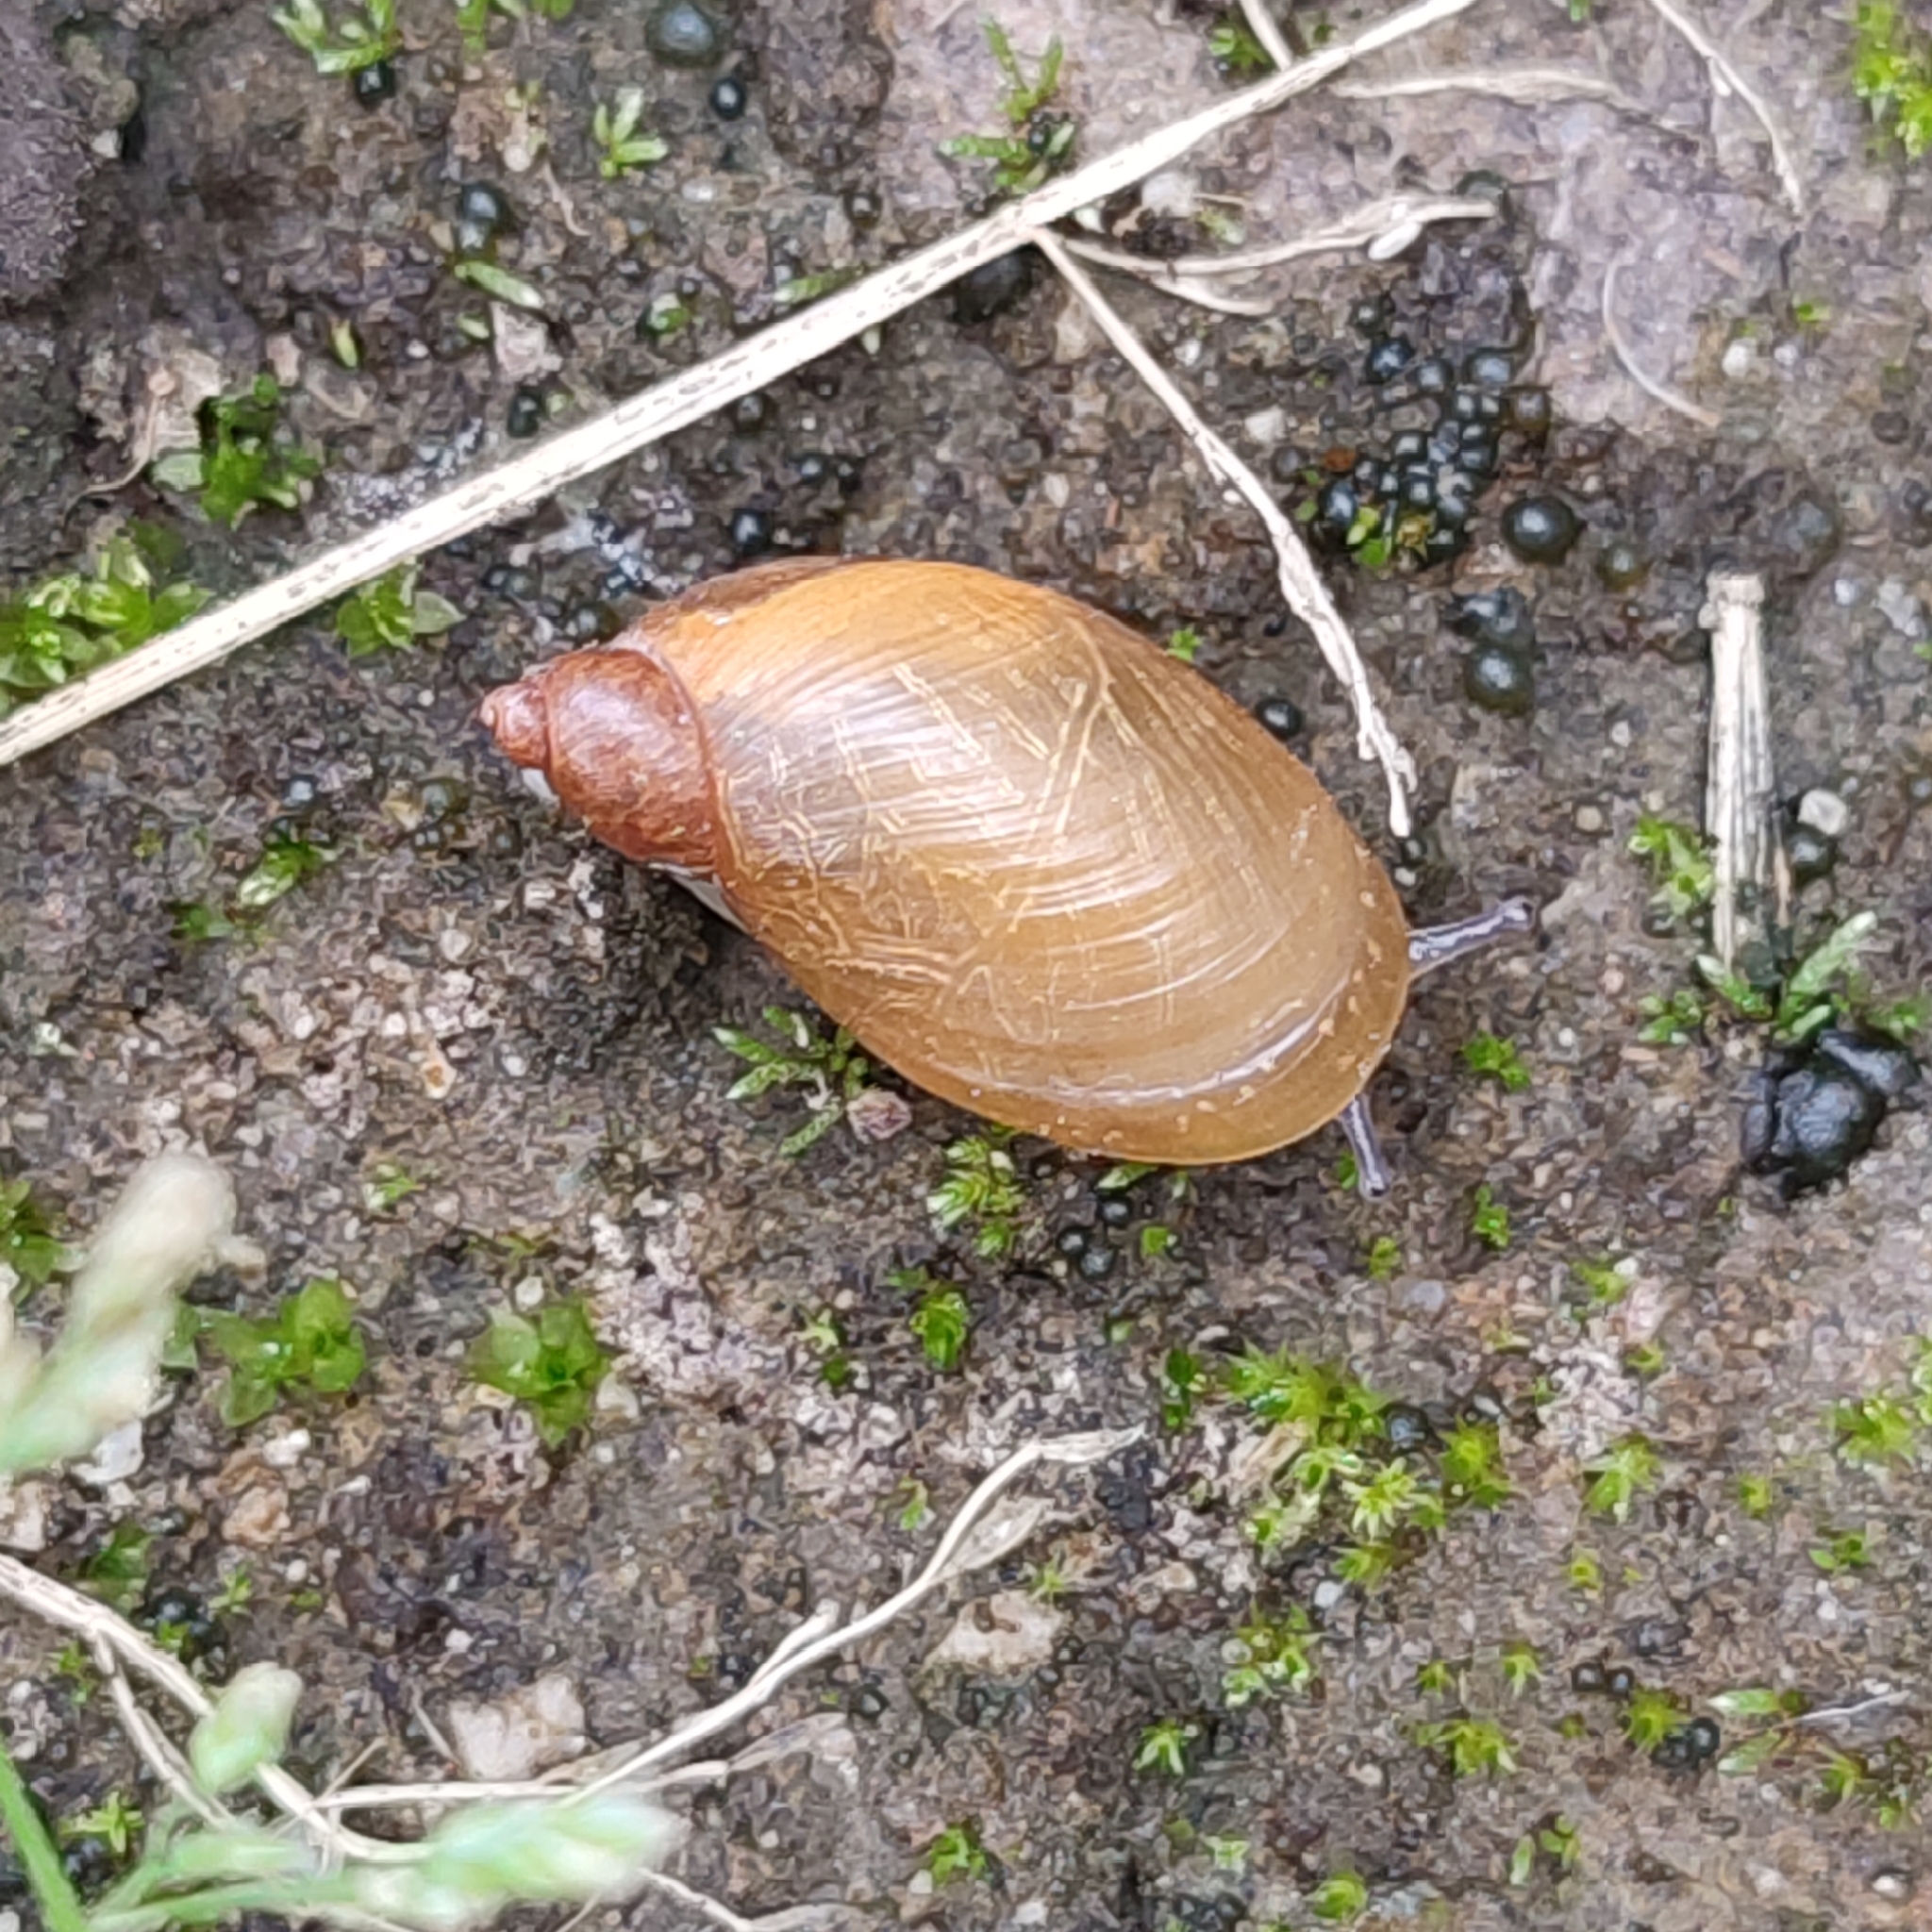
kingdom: Animalia
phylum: Mollusca
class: Gastropoda
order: Stylommatophora
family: Succineidae
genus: Succinea
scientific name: Succinea putris
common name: European ambersnail
